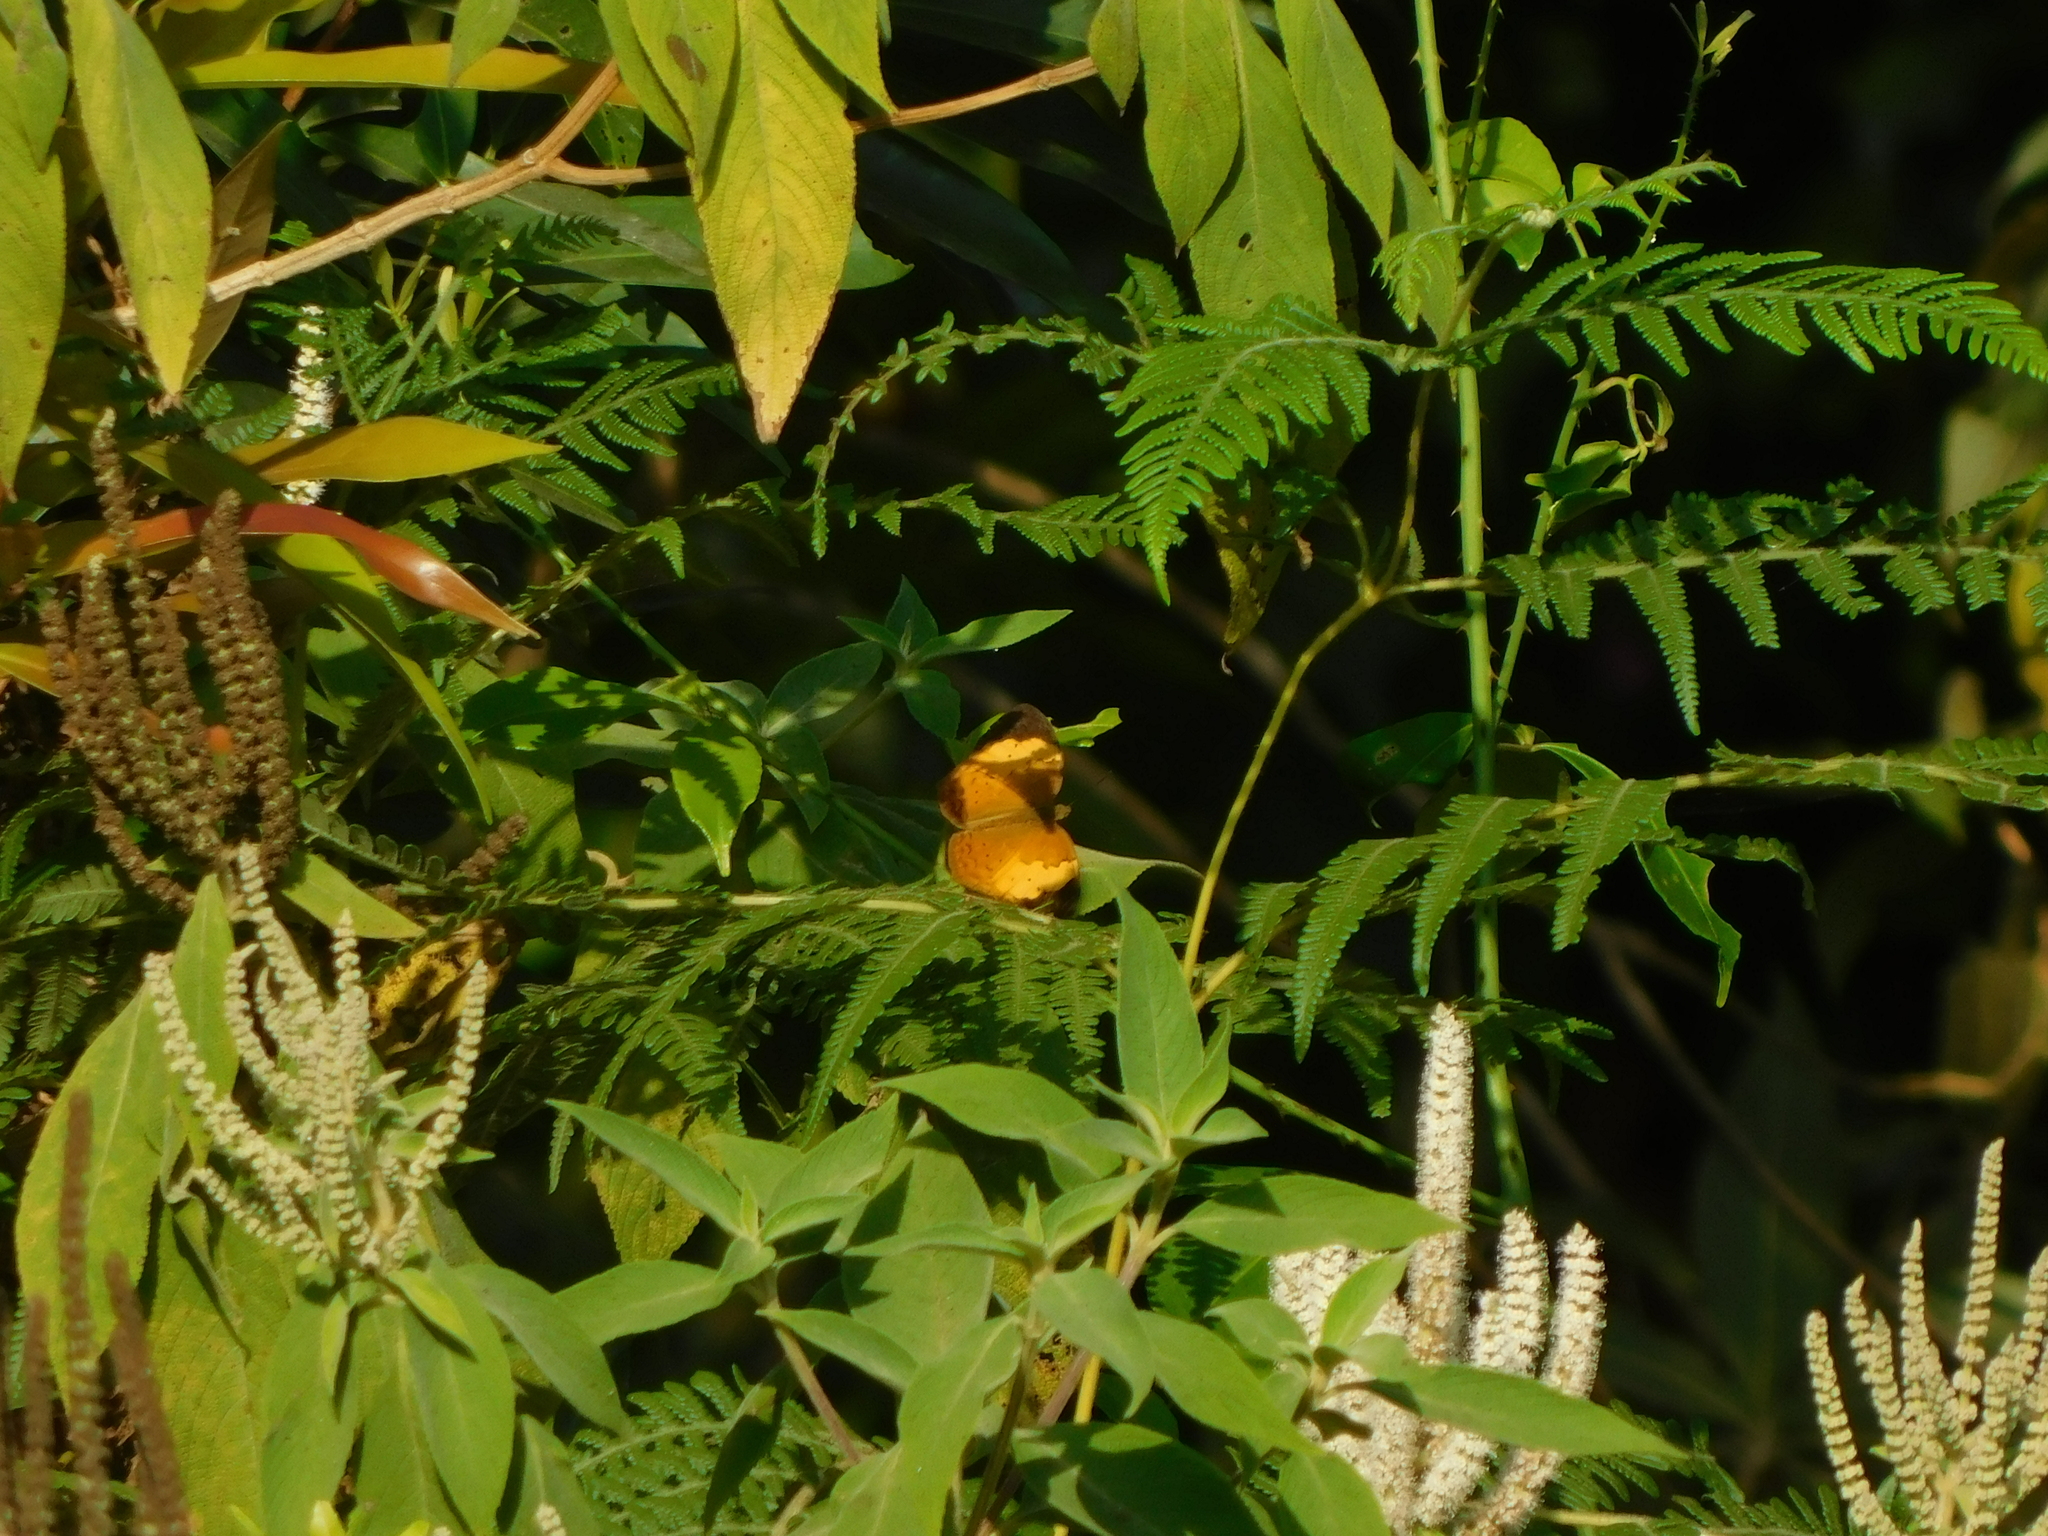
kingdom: Animalia
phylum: Arthropoda
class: Insecta
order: Lepidoptera
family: Nymphalidae
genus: Cupha
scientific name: Cupha erymanthis
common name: Rustic
